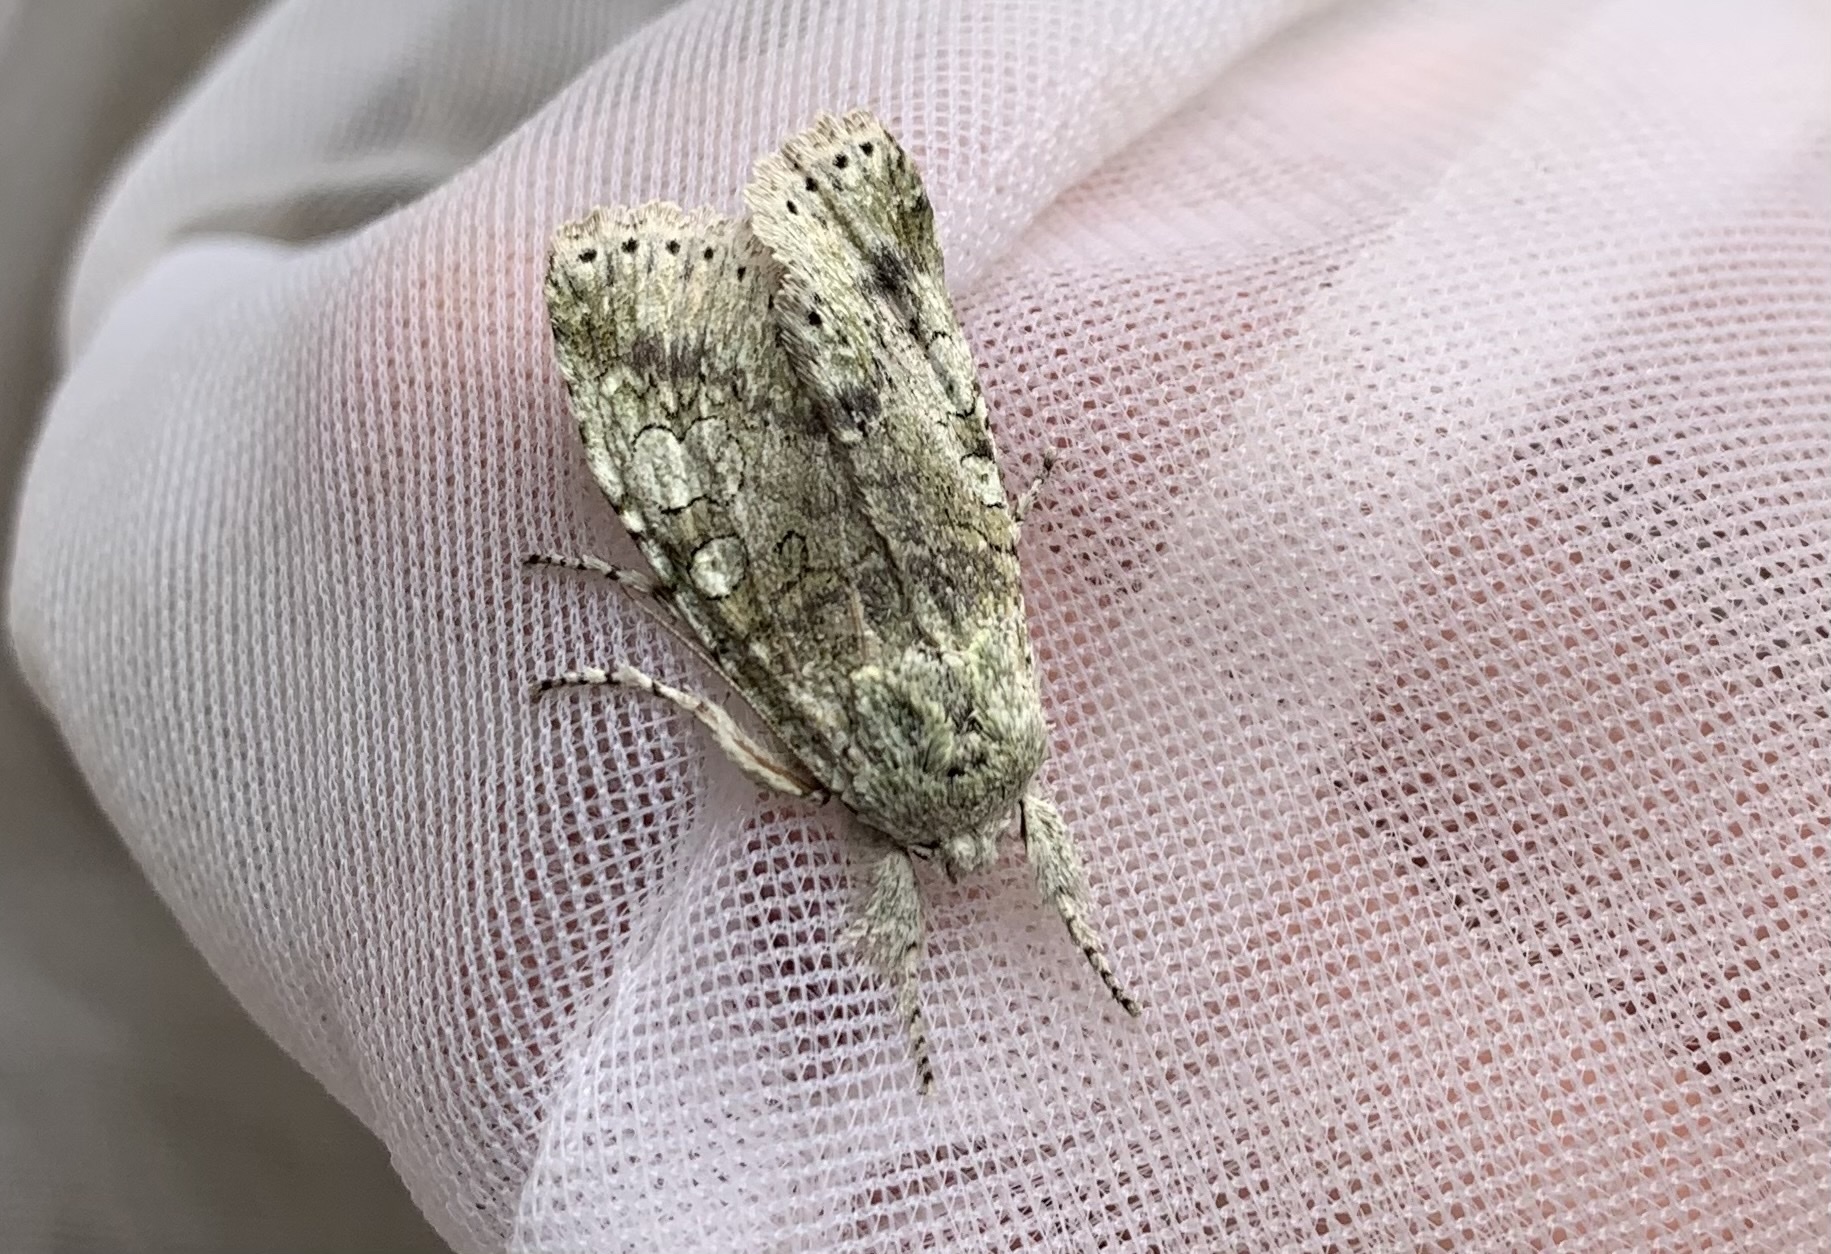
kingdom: Animalia
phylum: Arthropoda
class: Insecta
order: Lepidoptera
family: Noctuidae
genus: Pseudocerura
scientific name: Pseudocerura thoracica
